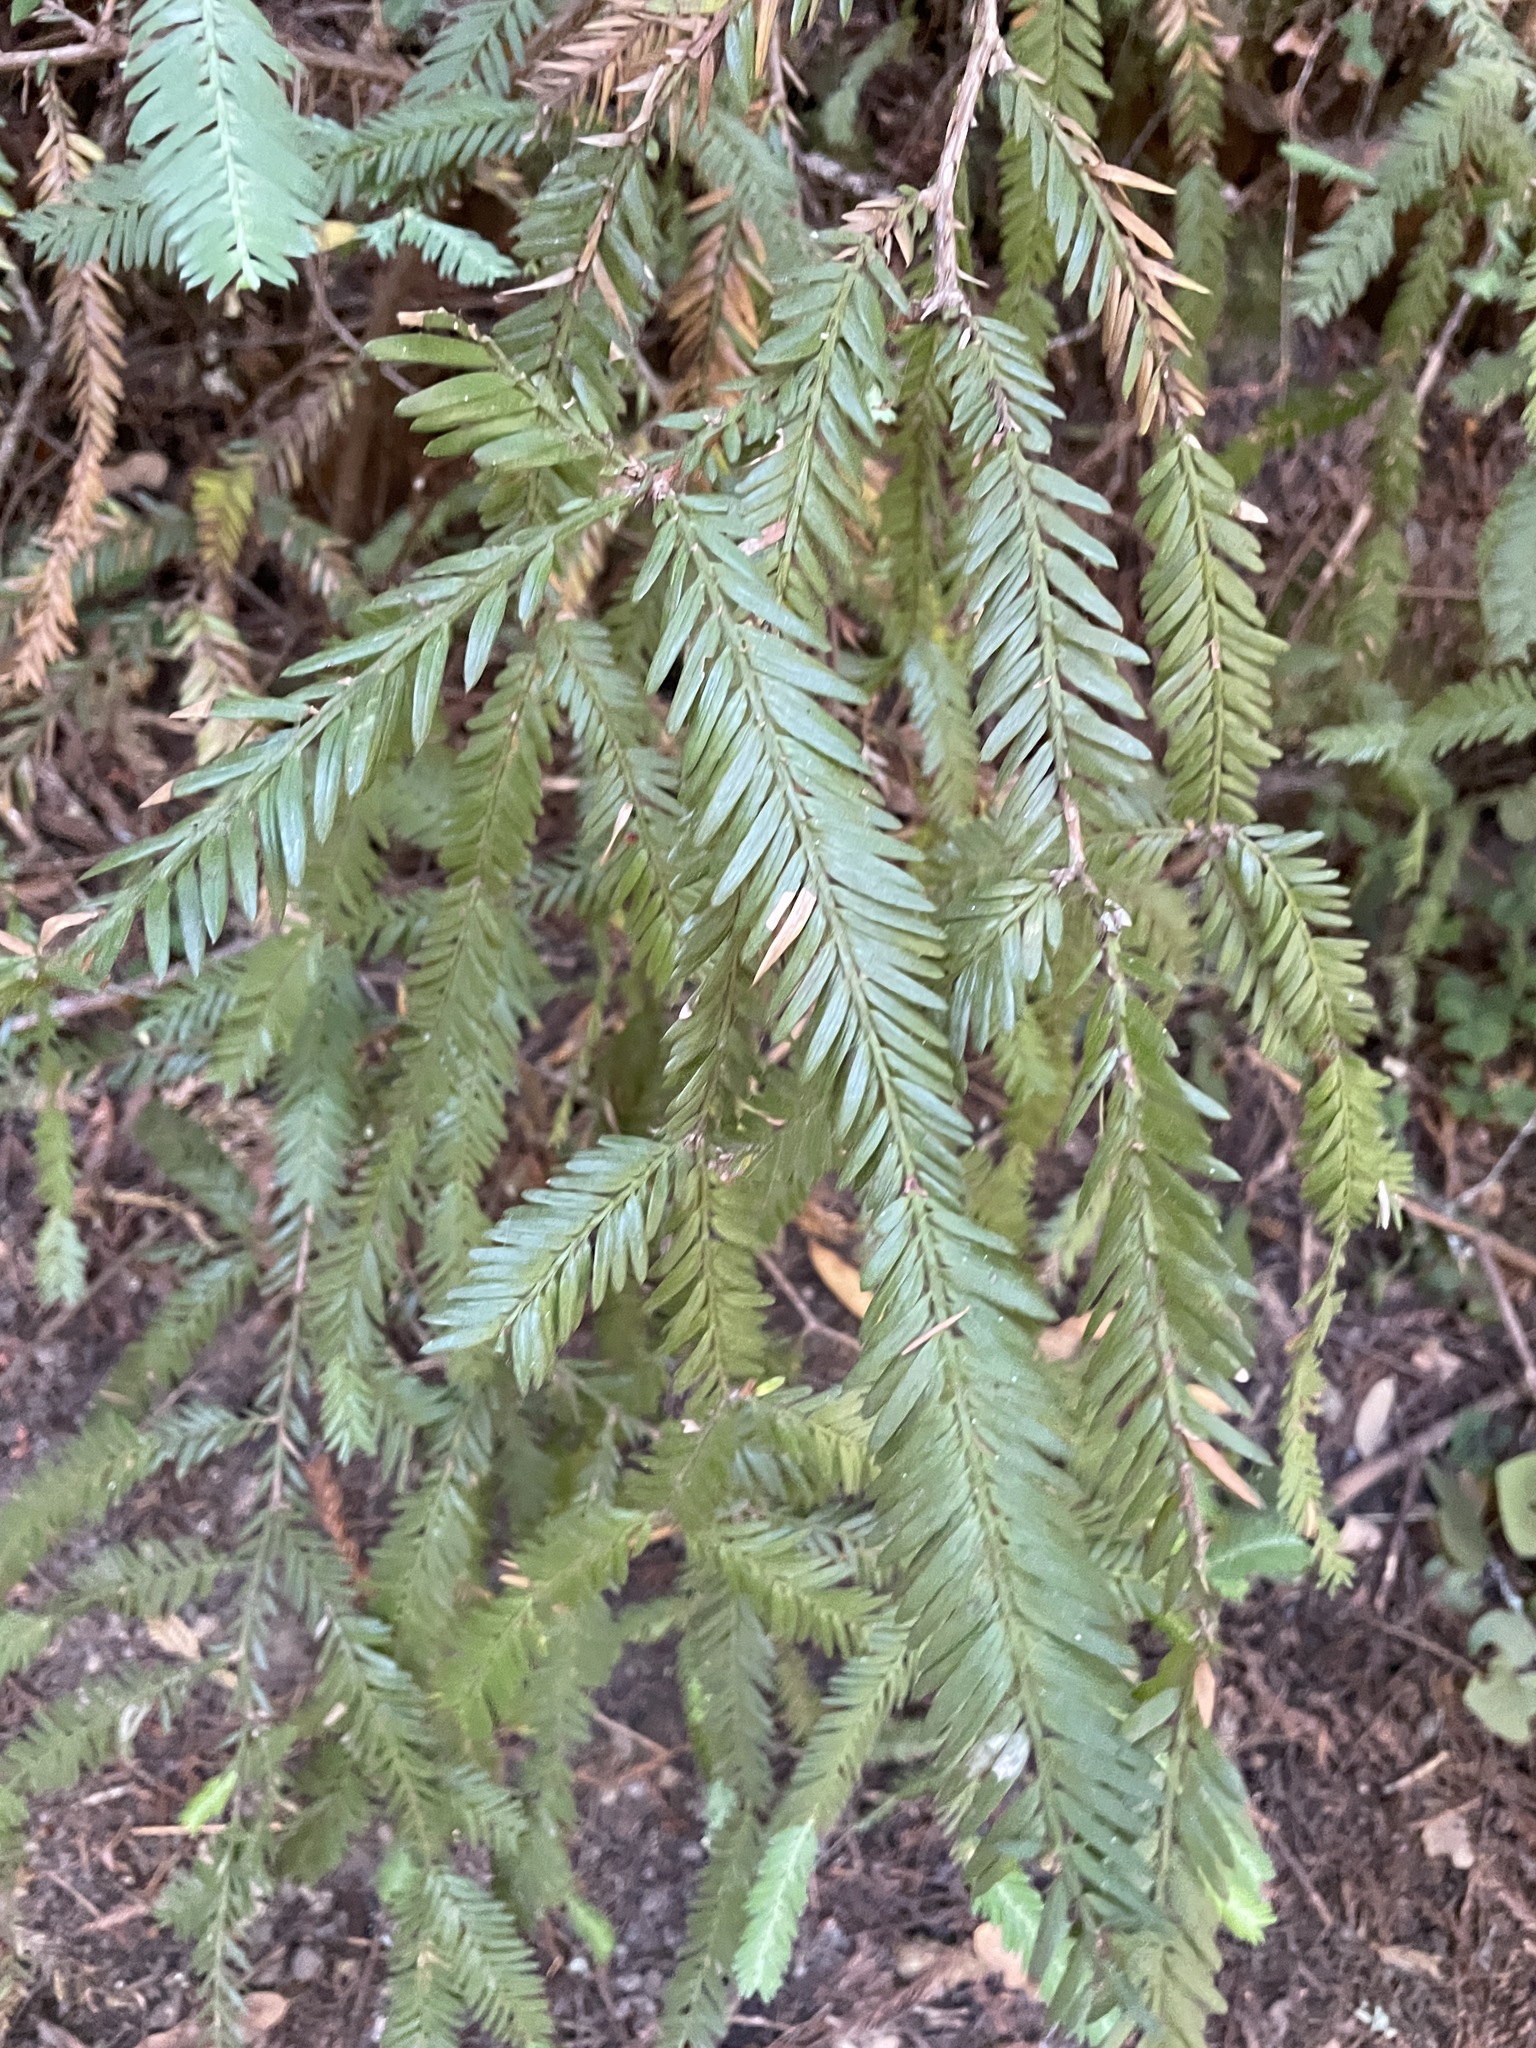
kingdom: Plantae
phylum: Tracheophyta
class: Pinopsida
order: Pinales
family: Cupressaceae
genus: Sequoia
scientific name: Sequoia sempervirens
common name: Coast redwood
